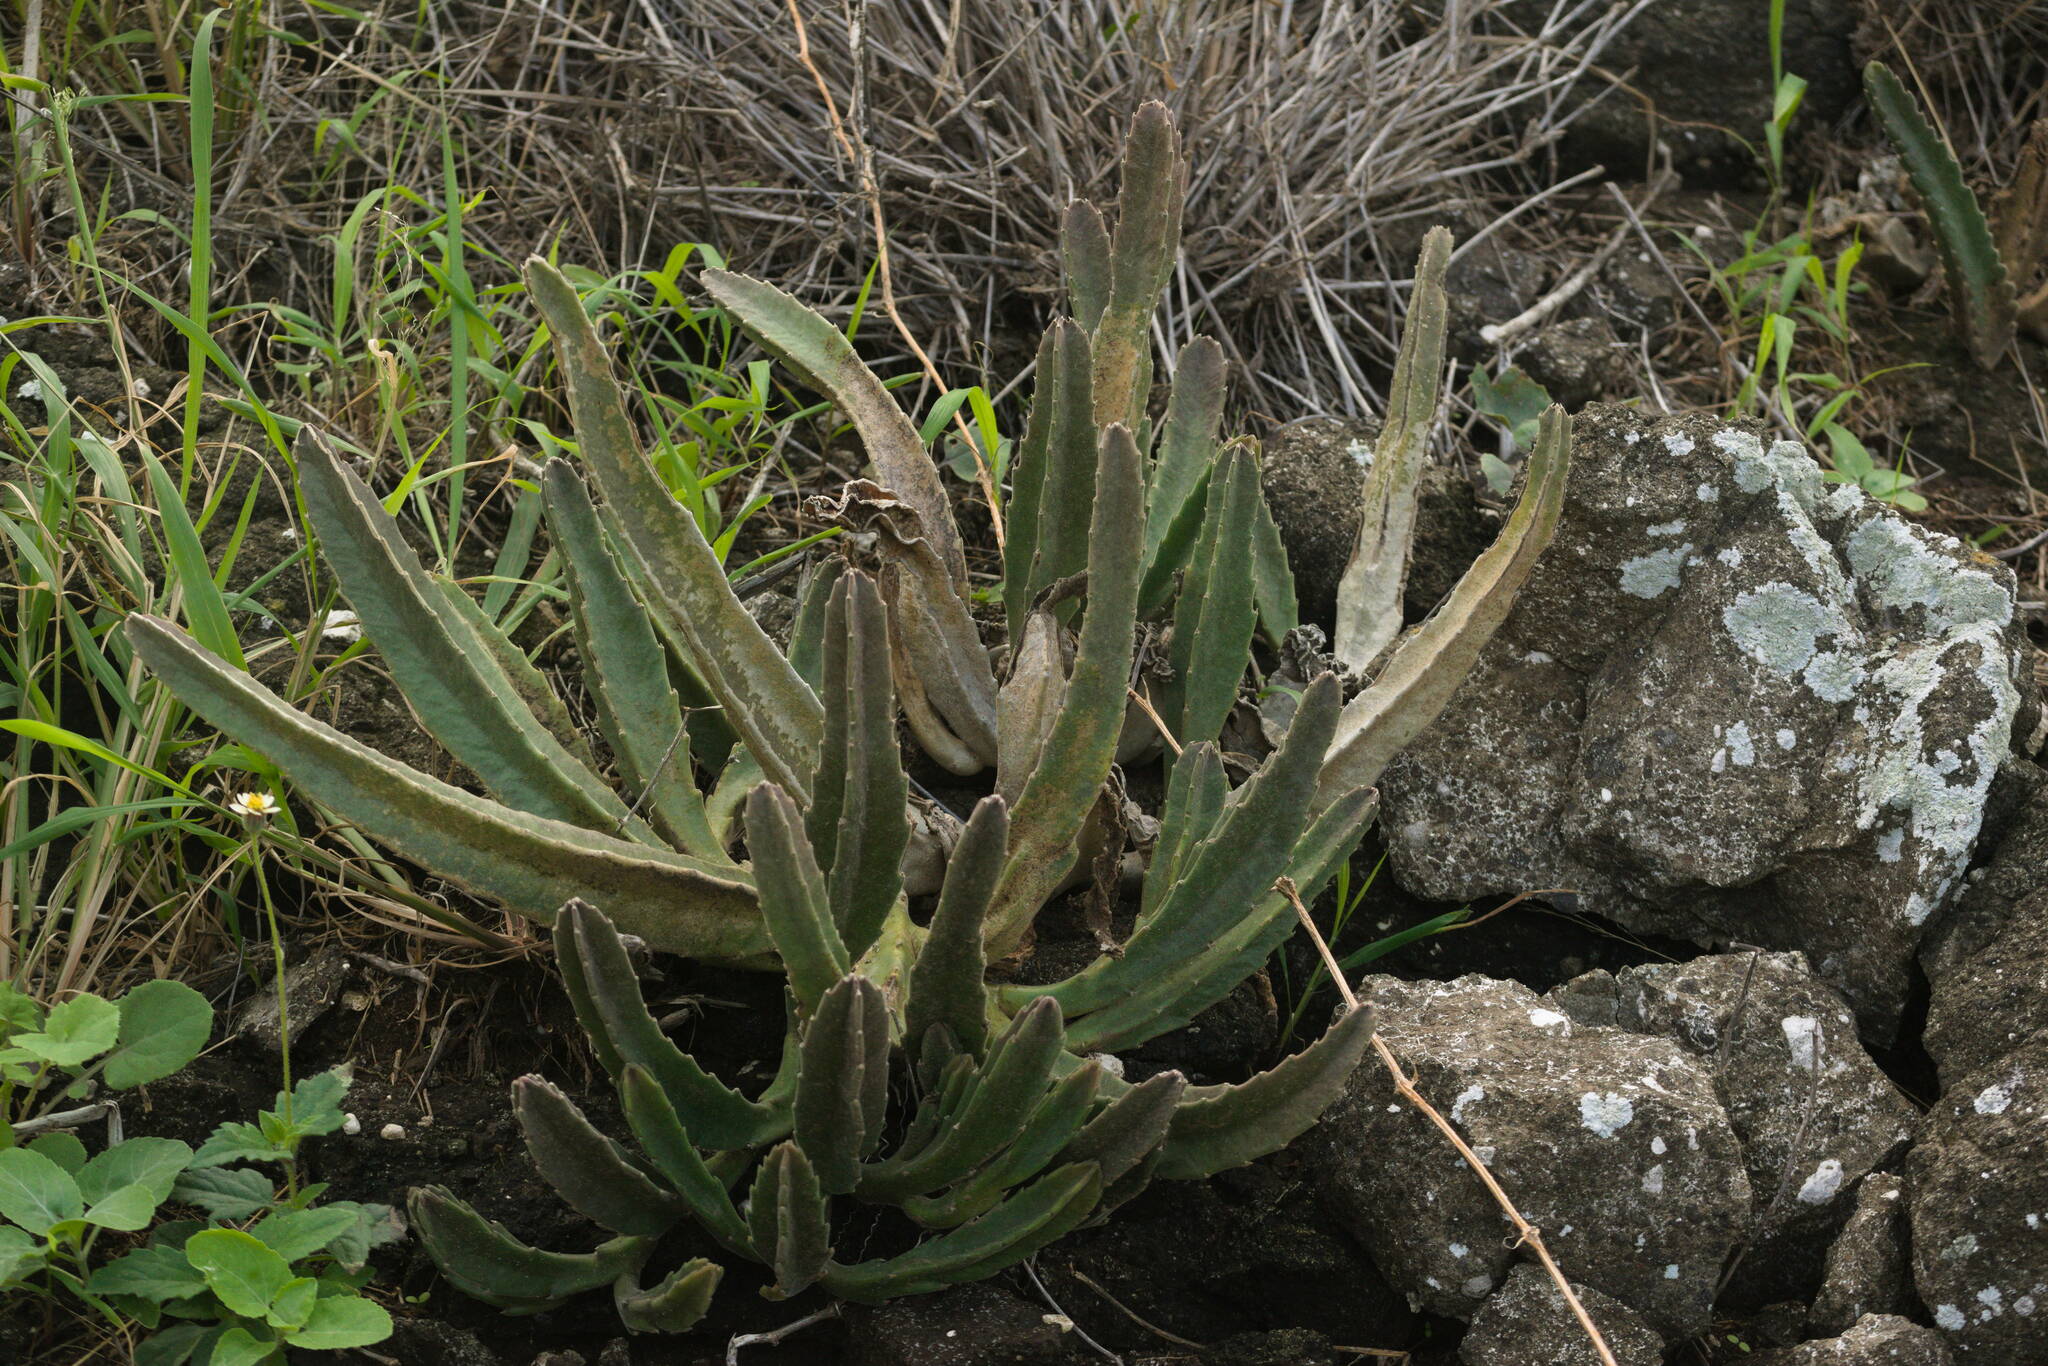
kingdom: Plantae
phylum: Tracheophyta
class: Magnoliopsida
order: Gentianales
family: Apocynaceae
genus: Ceropegia
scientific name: Ceropegia gigantea
